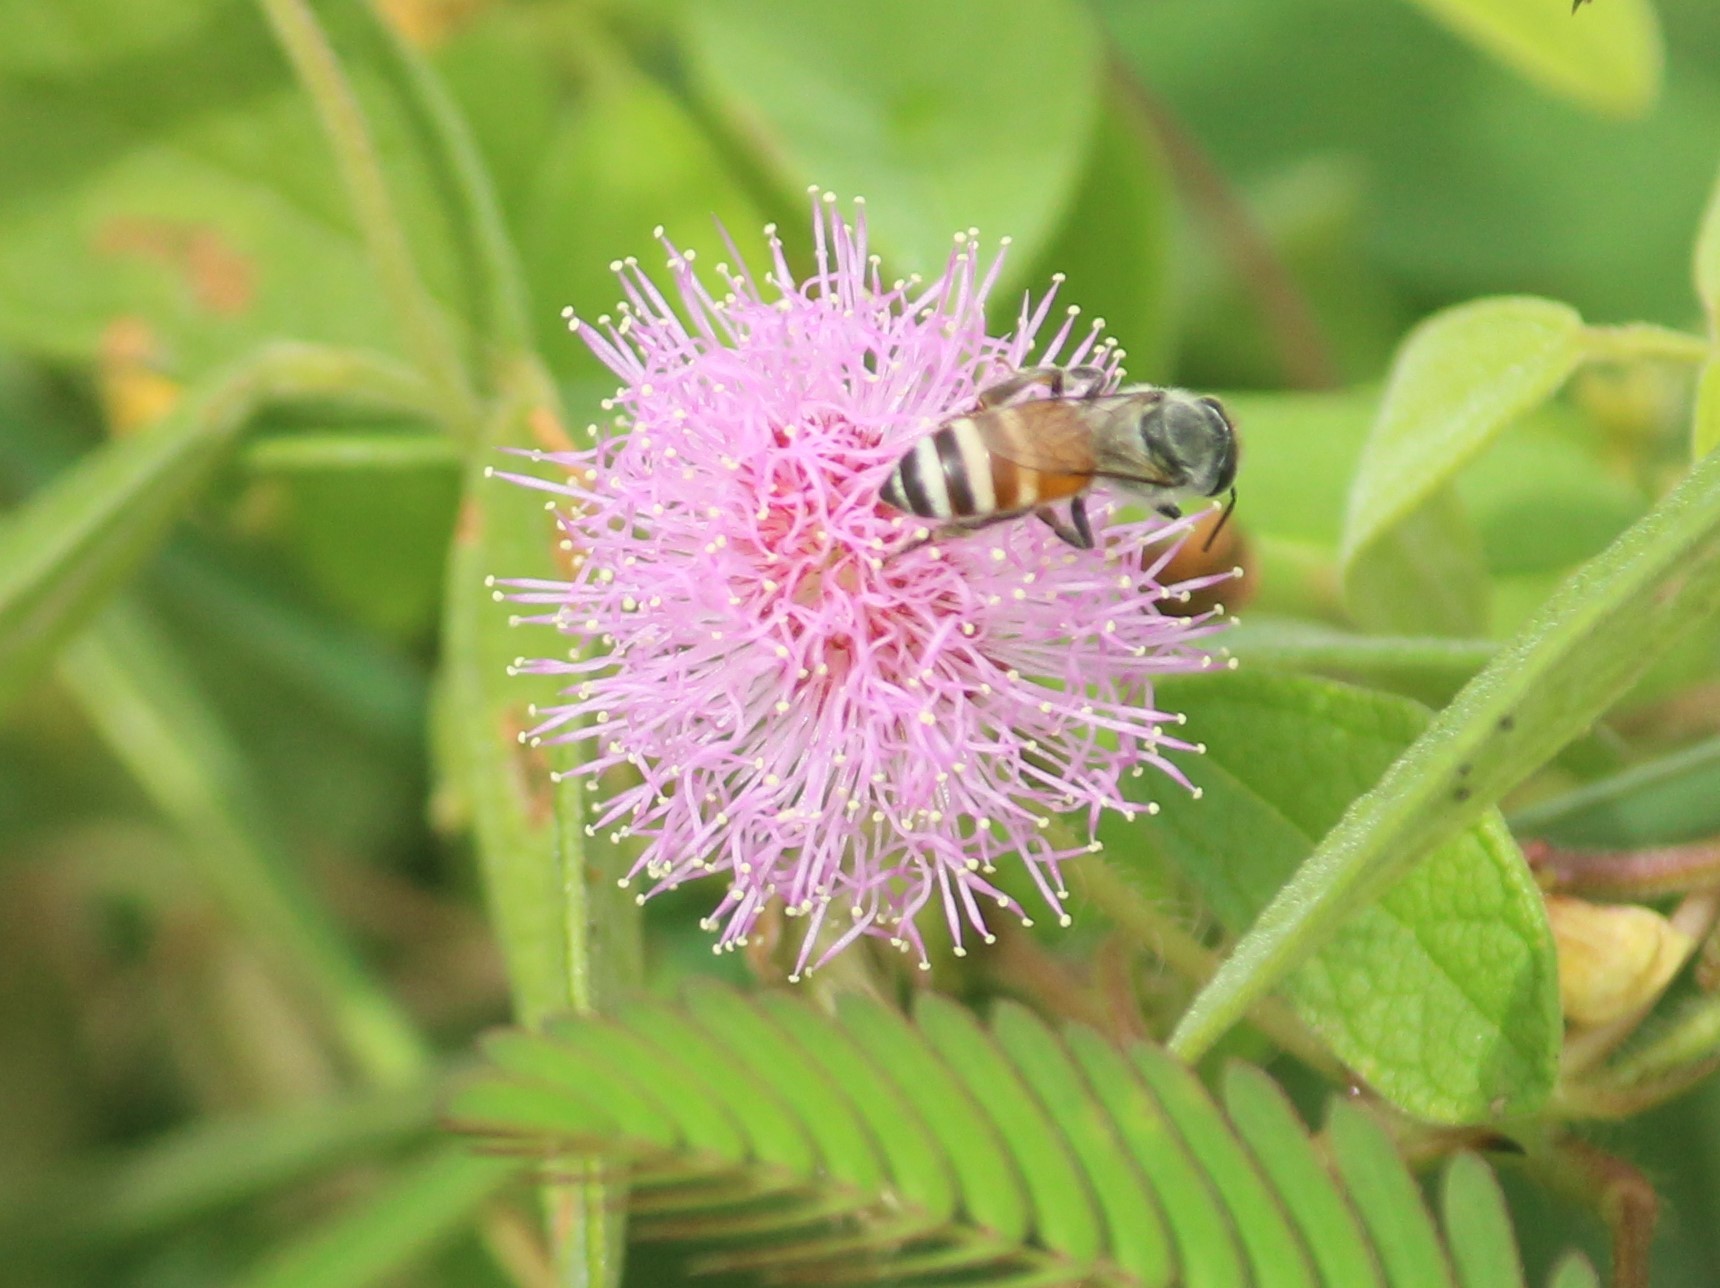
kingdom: Animalia
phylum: Arthropoda
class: Insecta
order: Hymenoptera
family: Apidae
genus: Apis
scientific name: Apis florea
